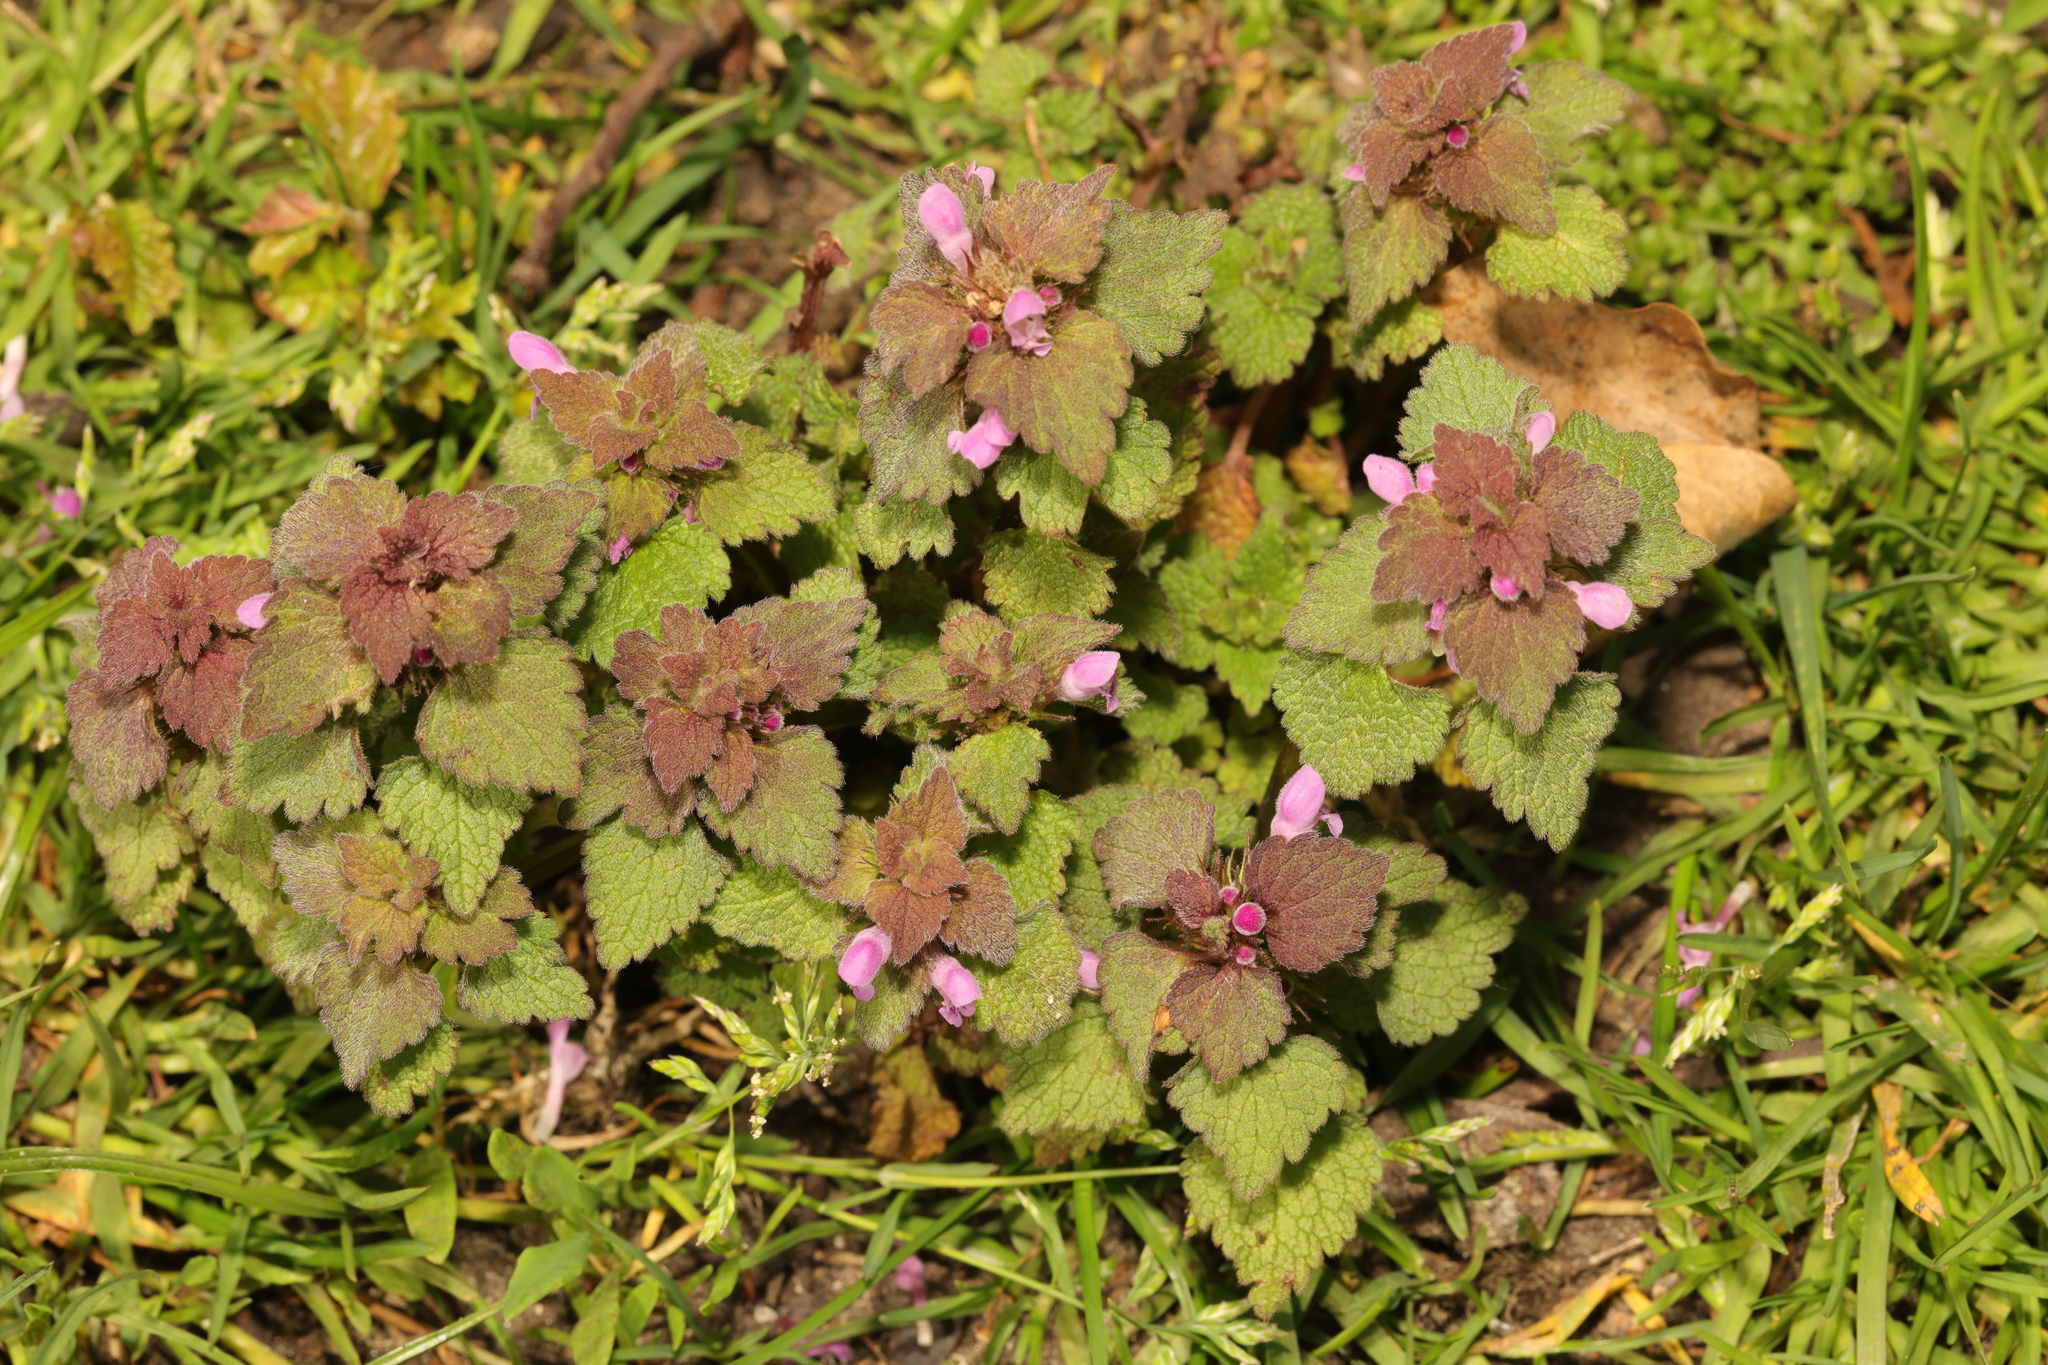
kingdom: Plantae
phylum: Tracheophyta
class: Magnoliopsida
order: Lamiales
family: Lamiaceae
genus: Lamium
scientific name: Lamium purpureum
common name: Red dead-nettle
